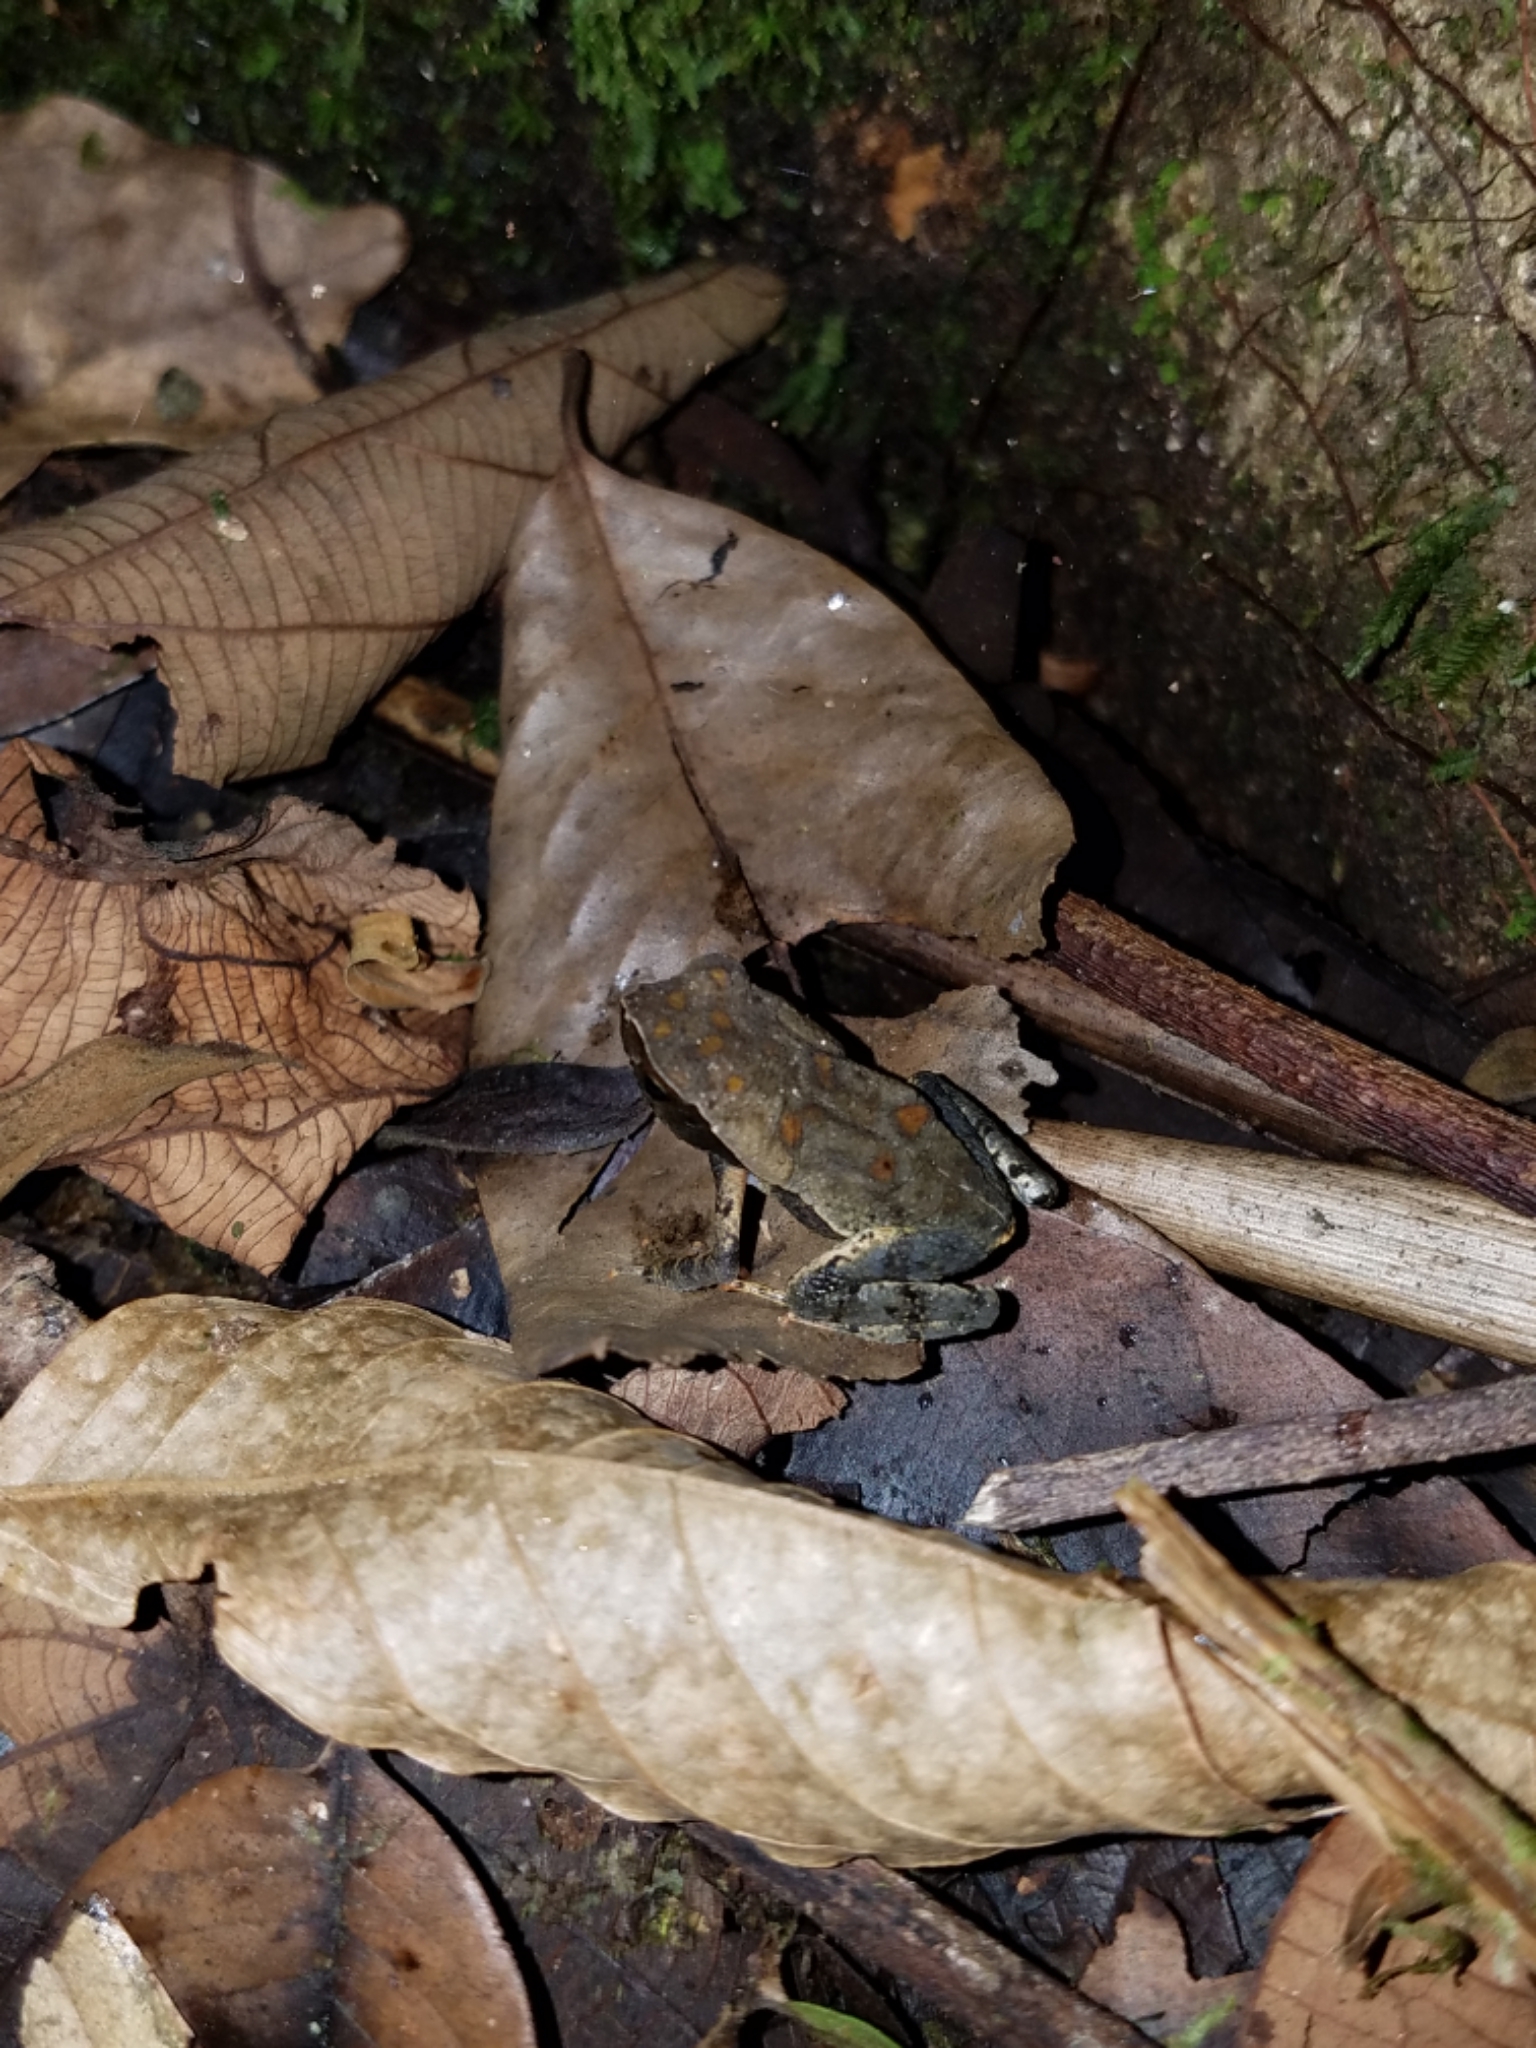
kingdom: Animalia
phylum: Chordata
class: Amphibia
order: Anura
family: Bufonidae
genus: Rhaebo
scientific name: Rhaebo haematiticus
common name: Truando toad
